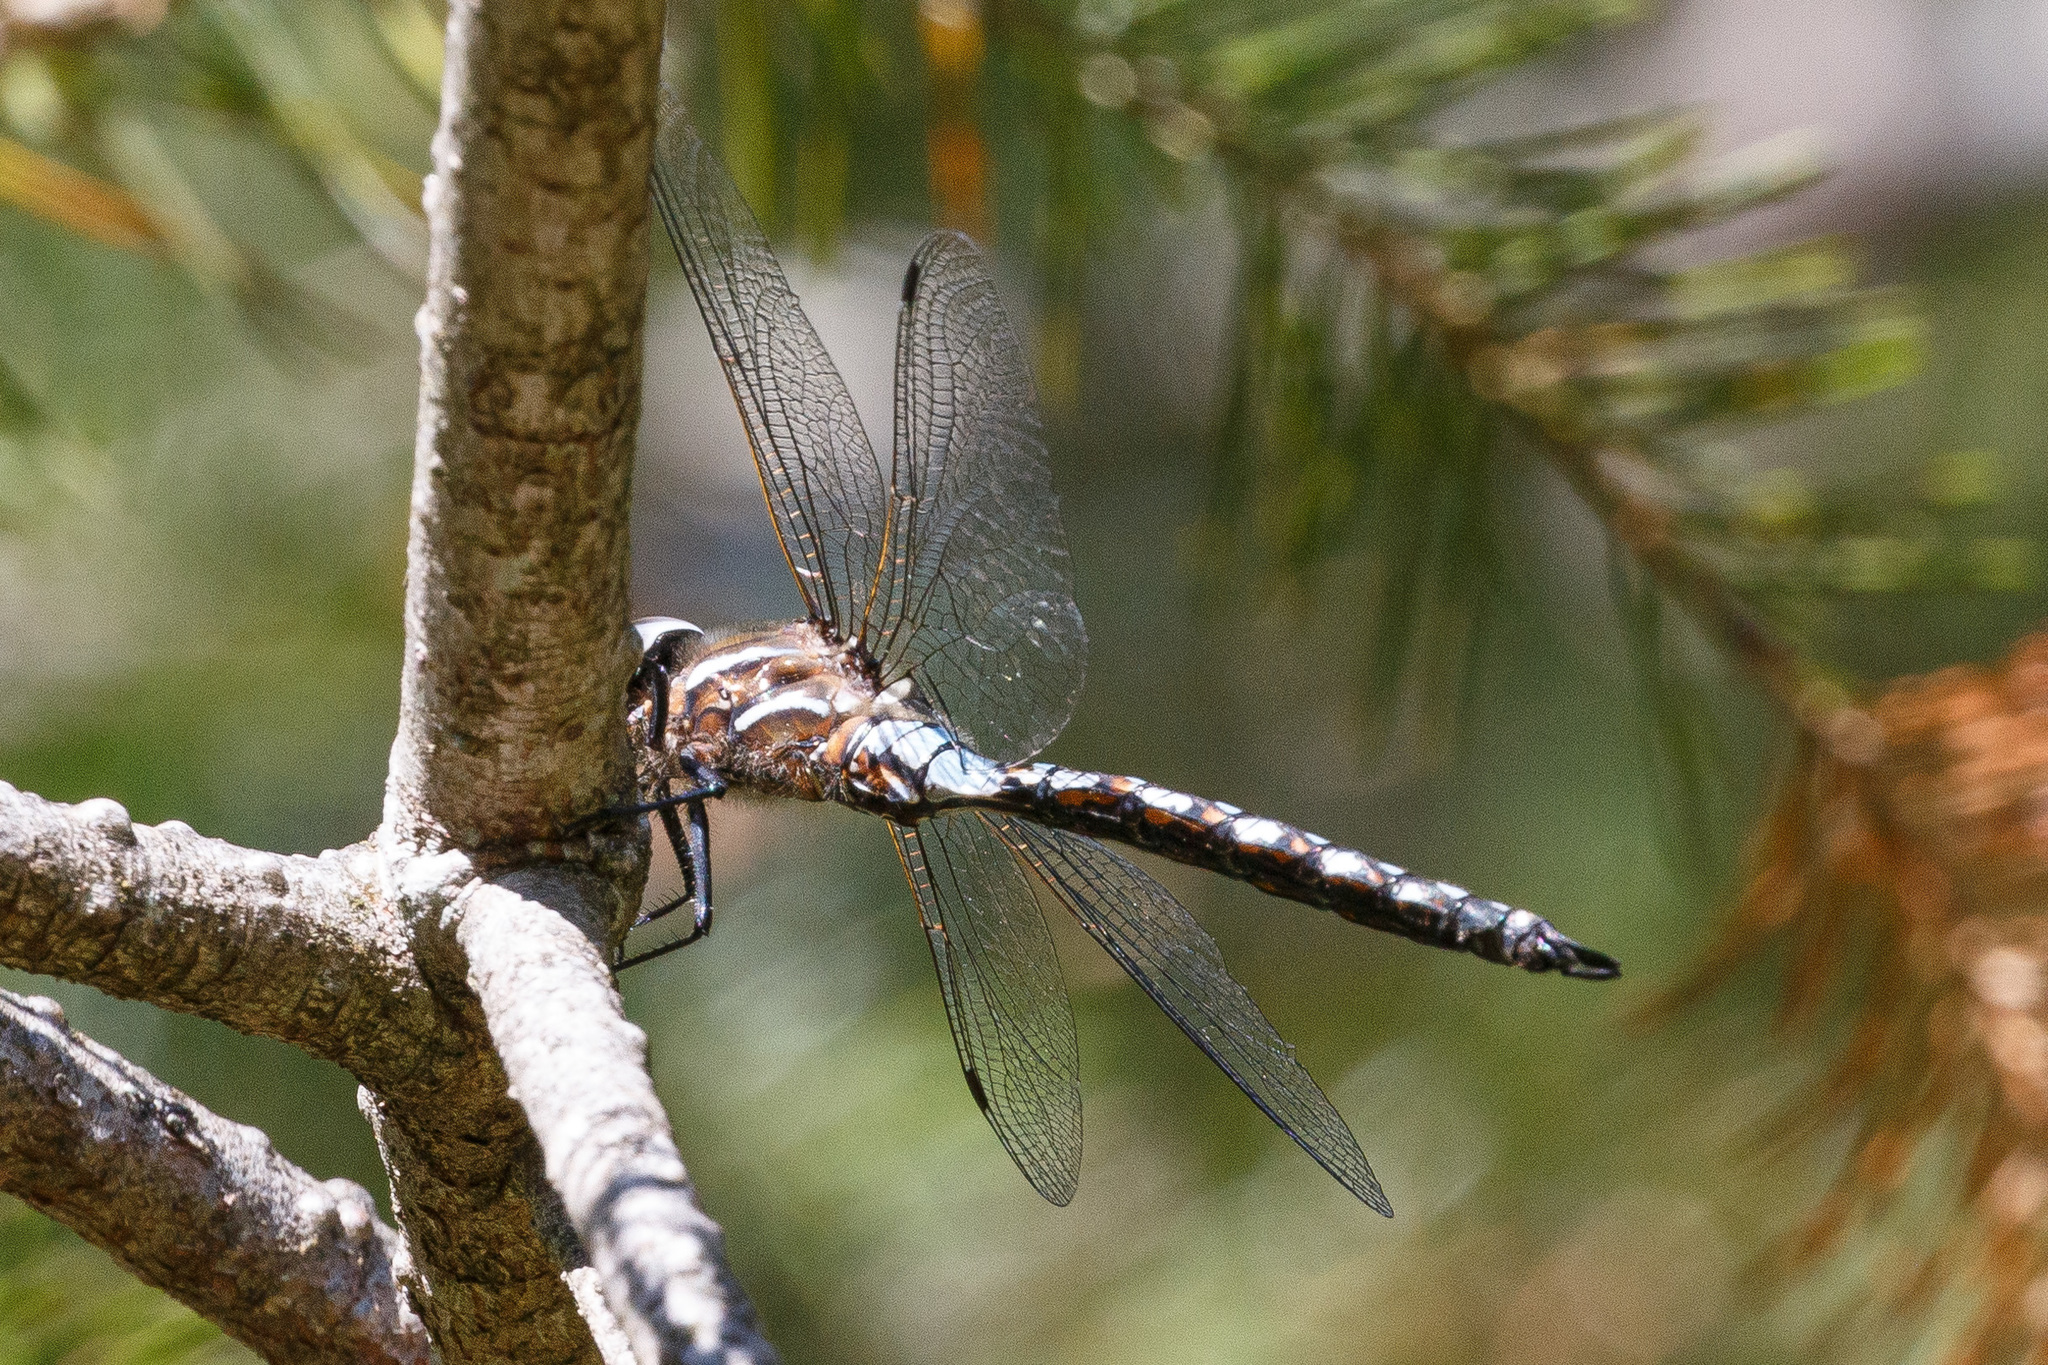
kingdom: Animalia
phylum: Arthropoda
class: Insecta
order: Odonata
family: Aeshnidae
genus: Rhionaeschna
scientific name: Rhionaeschna californica
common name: California darner
